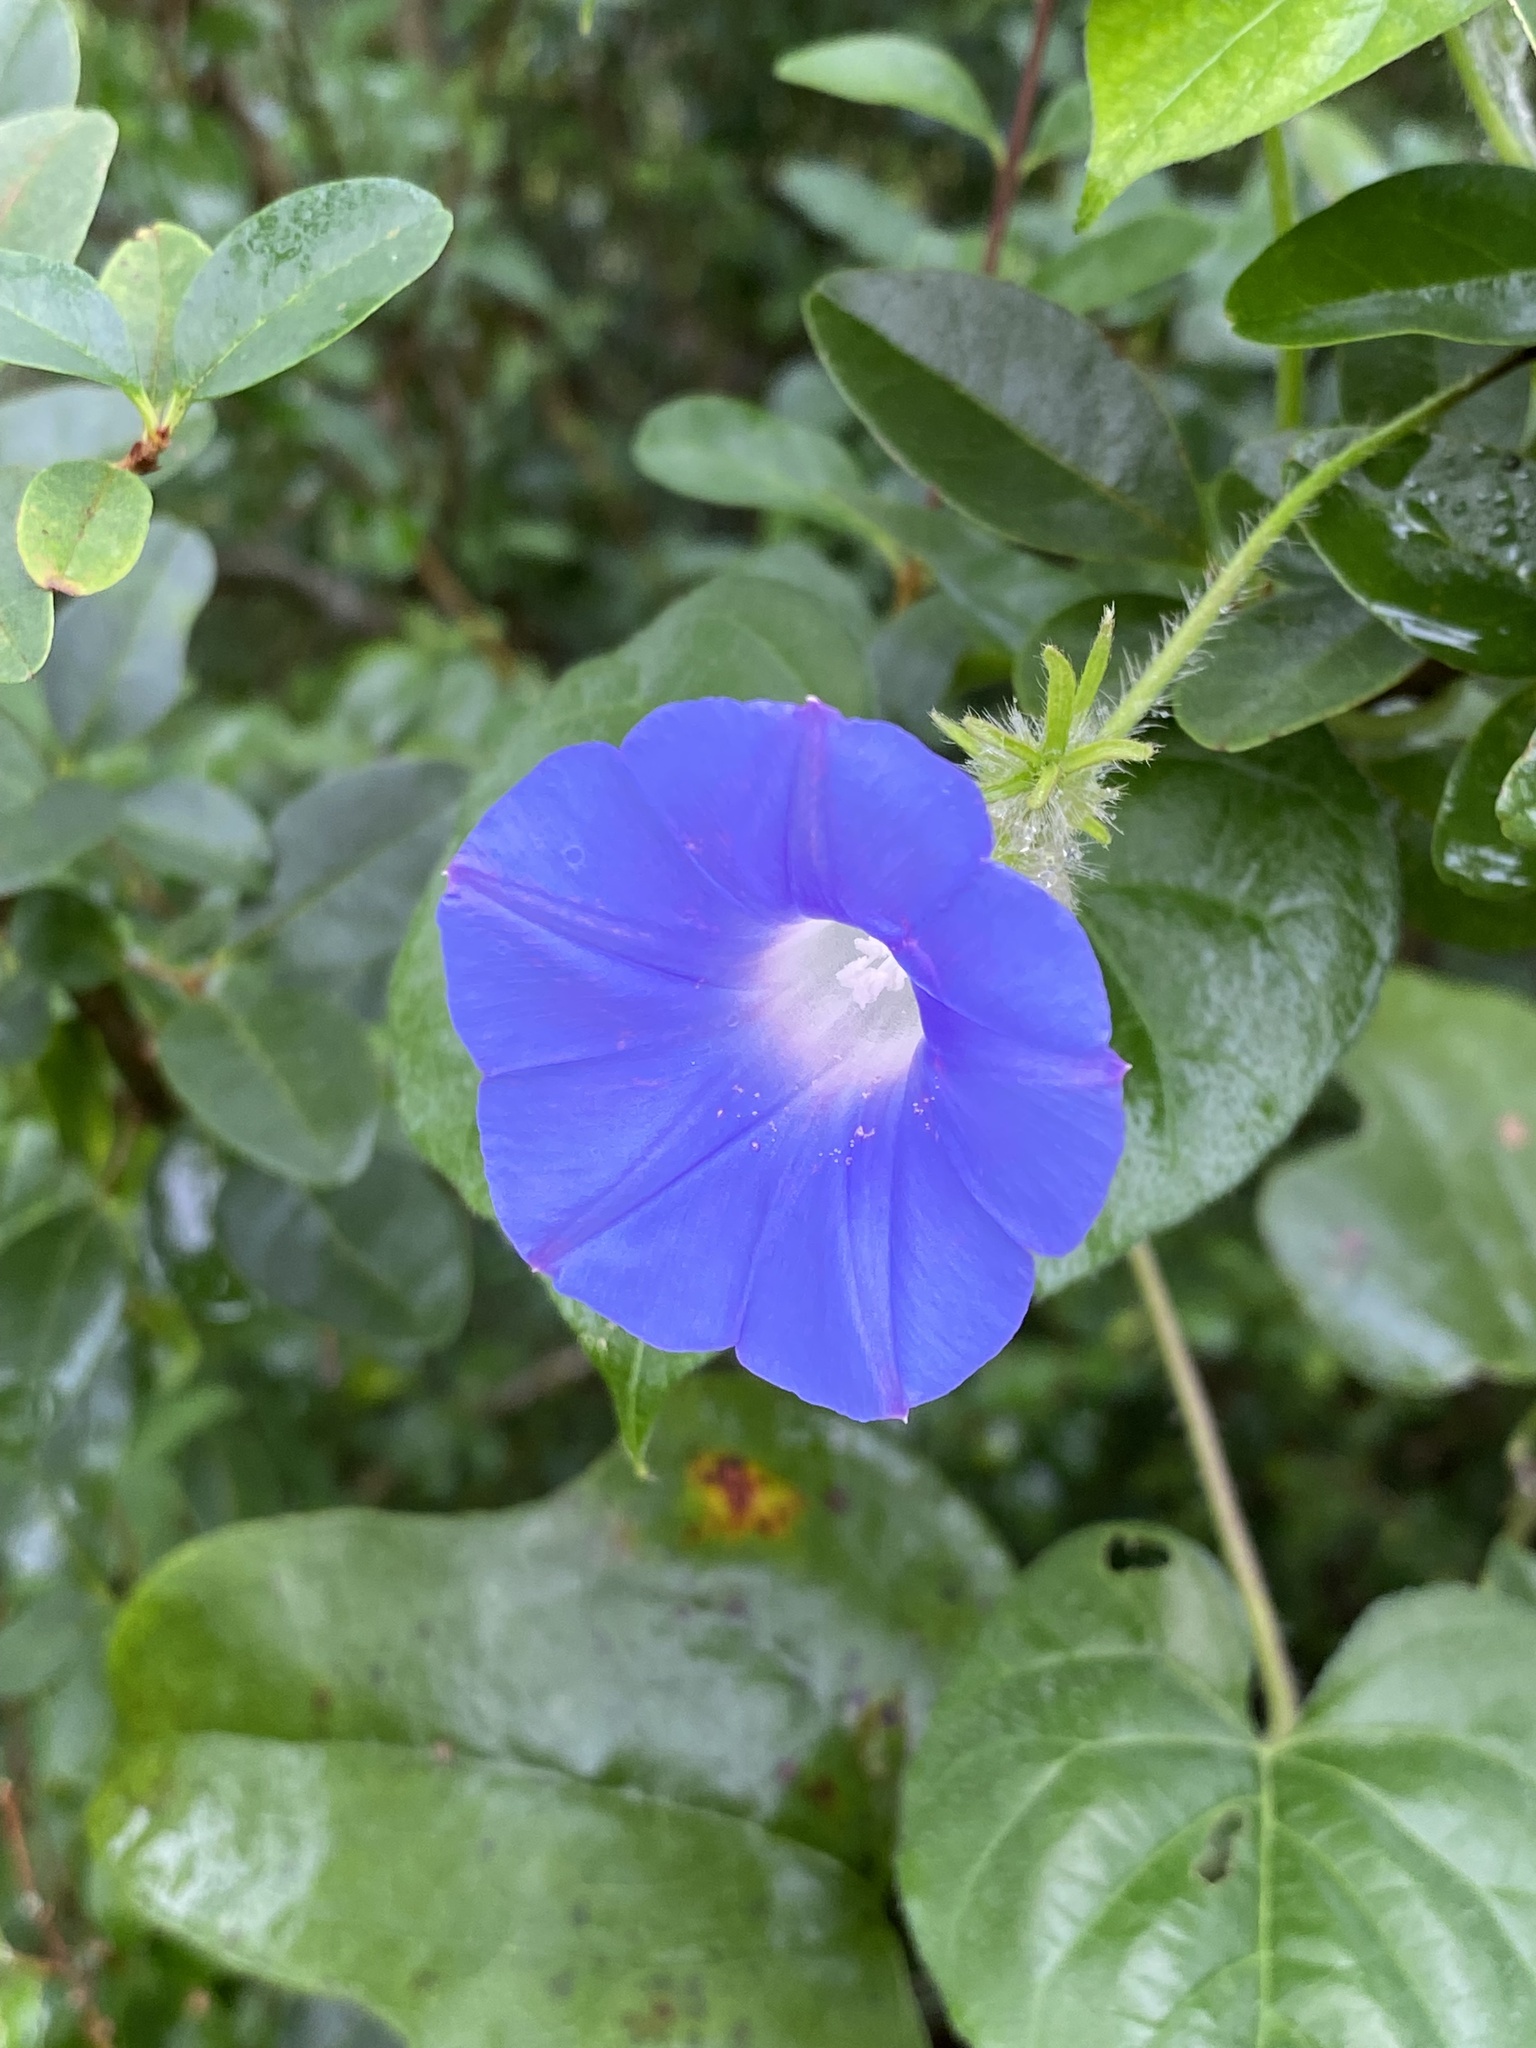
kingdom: Plantae
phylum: Tracheophyta
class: Magnoliopsida
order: Solanales
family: Convolvulaceae
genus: Ipomoea
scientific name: Ipomoea hederacea
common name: Ivy-leaved morning-glory
